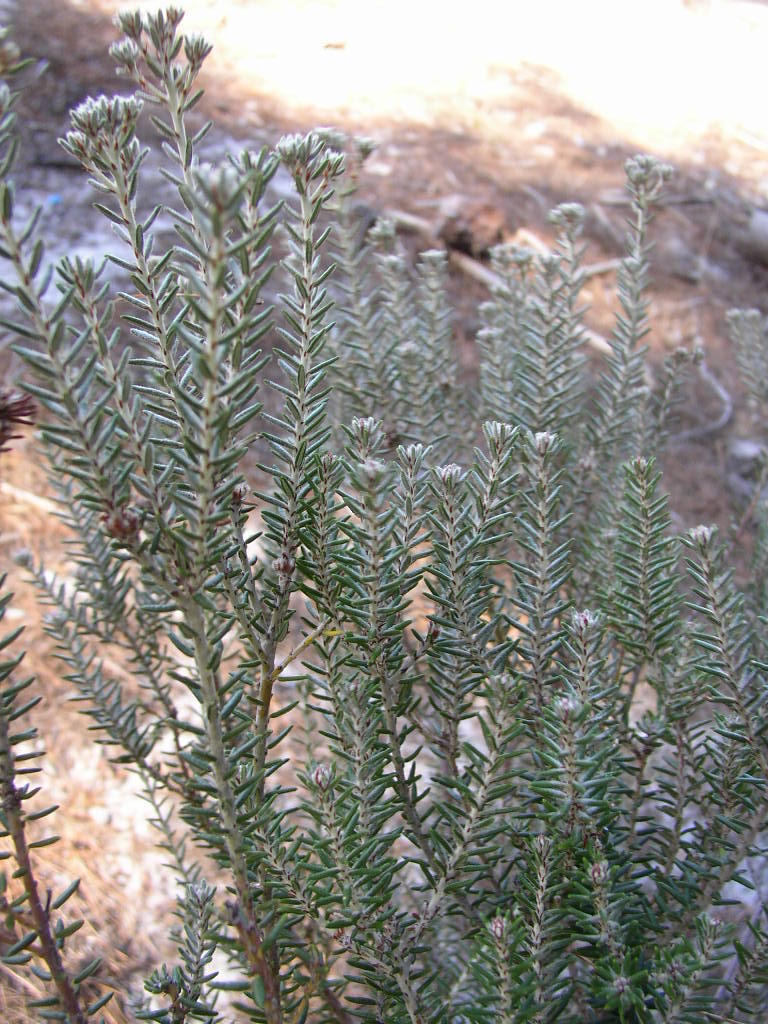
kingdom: Plantae
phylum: Tracheophyta
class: Magnoliopsida
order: Rosales
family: Rhamnaceae
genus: Trichocephalus
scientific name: Trichocephalus stipularis
